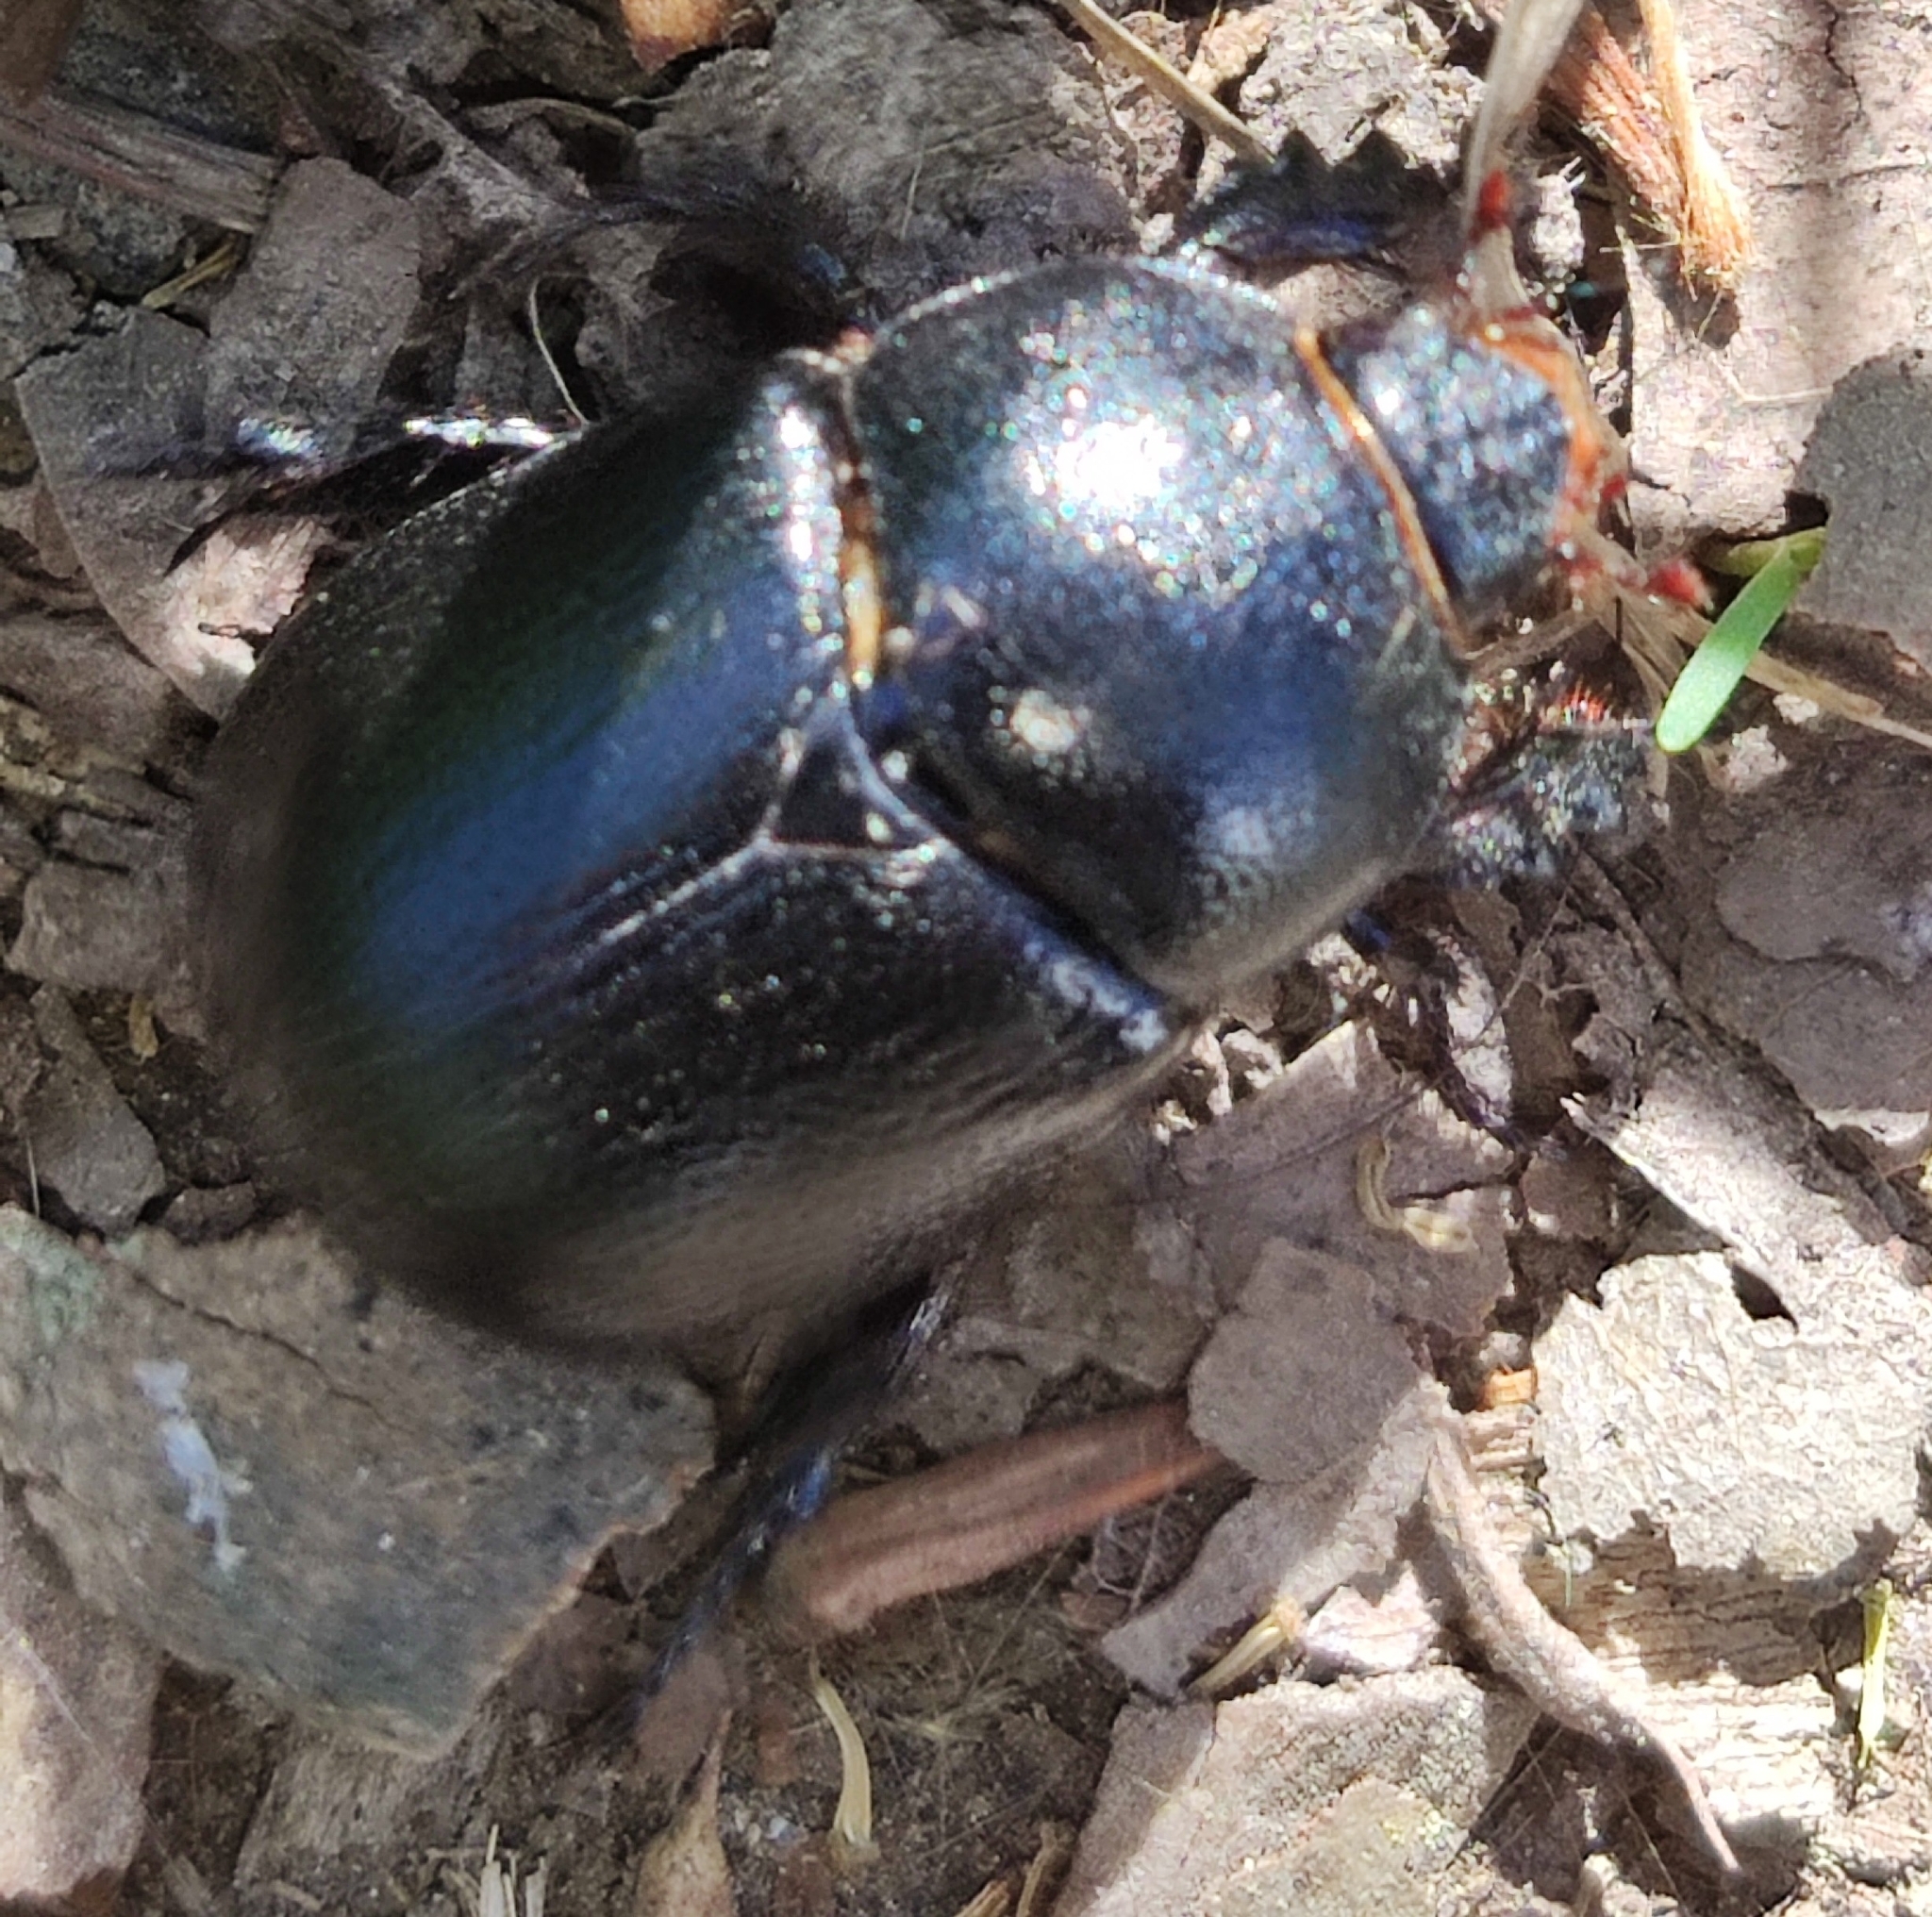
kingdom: Animalia
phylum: Arthropoda
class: Insecta
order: Coleoptera
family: Scarabaeidae
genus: Pentodon
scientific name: Pentodon bidens
